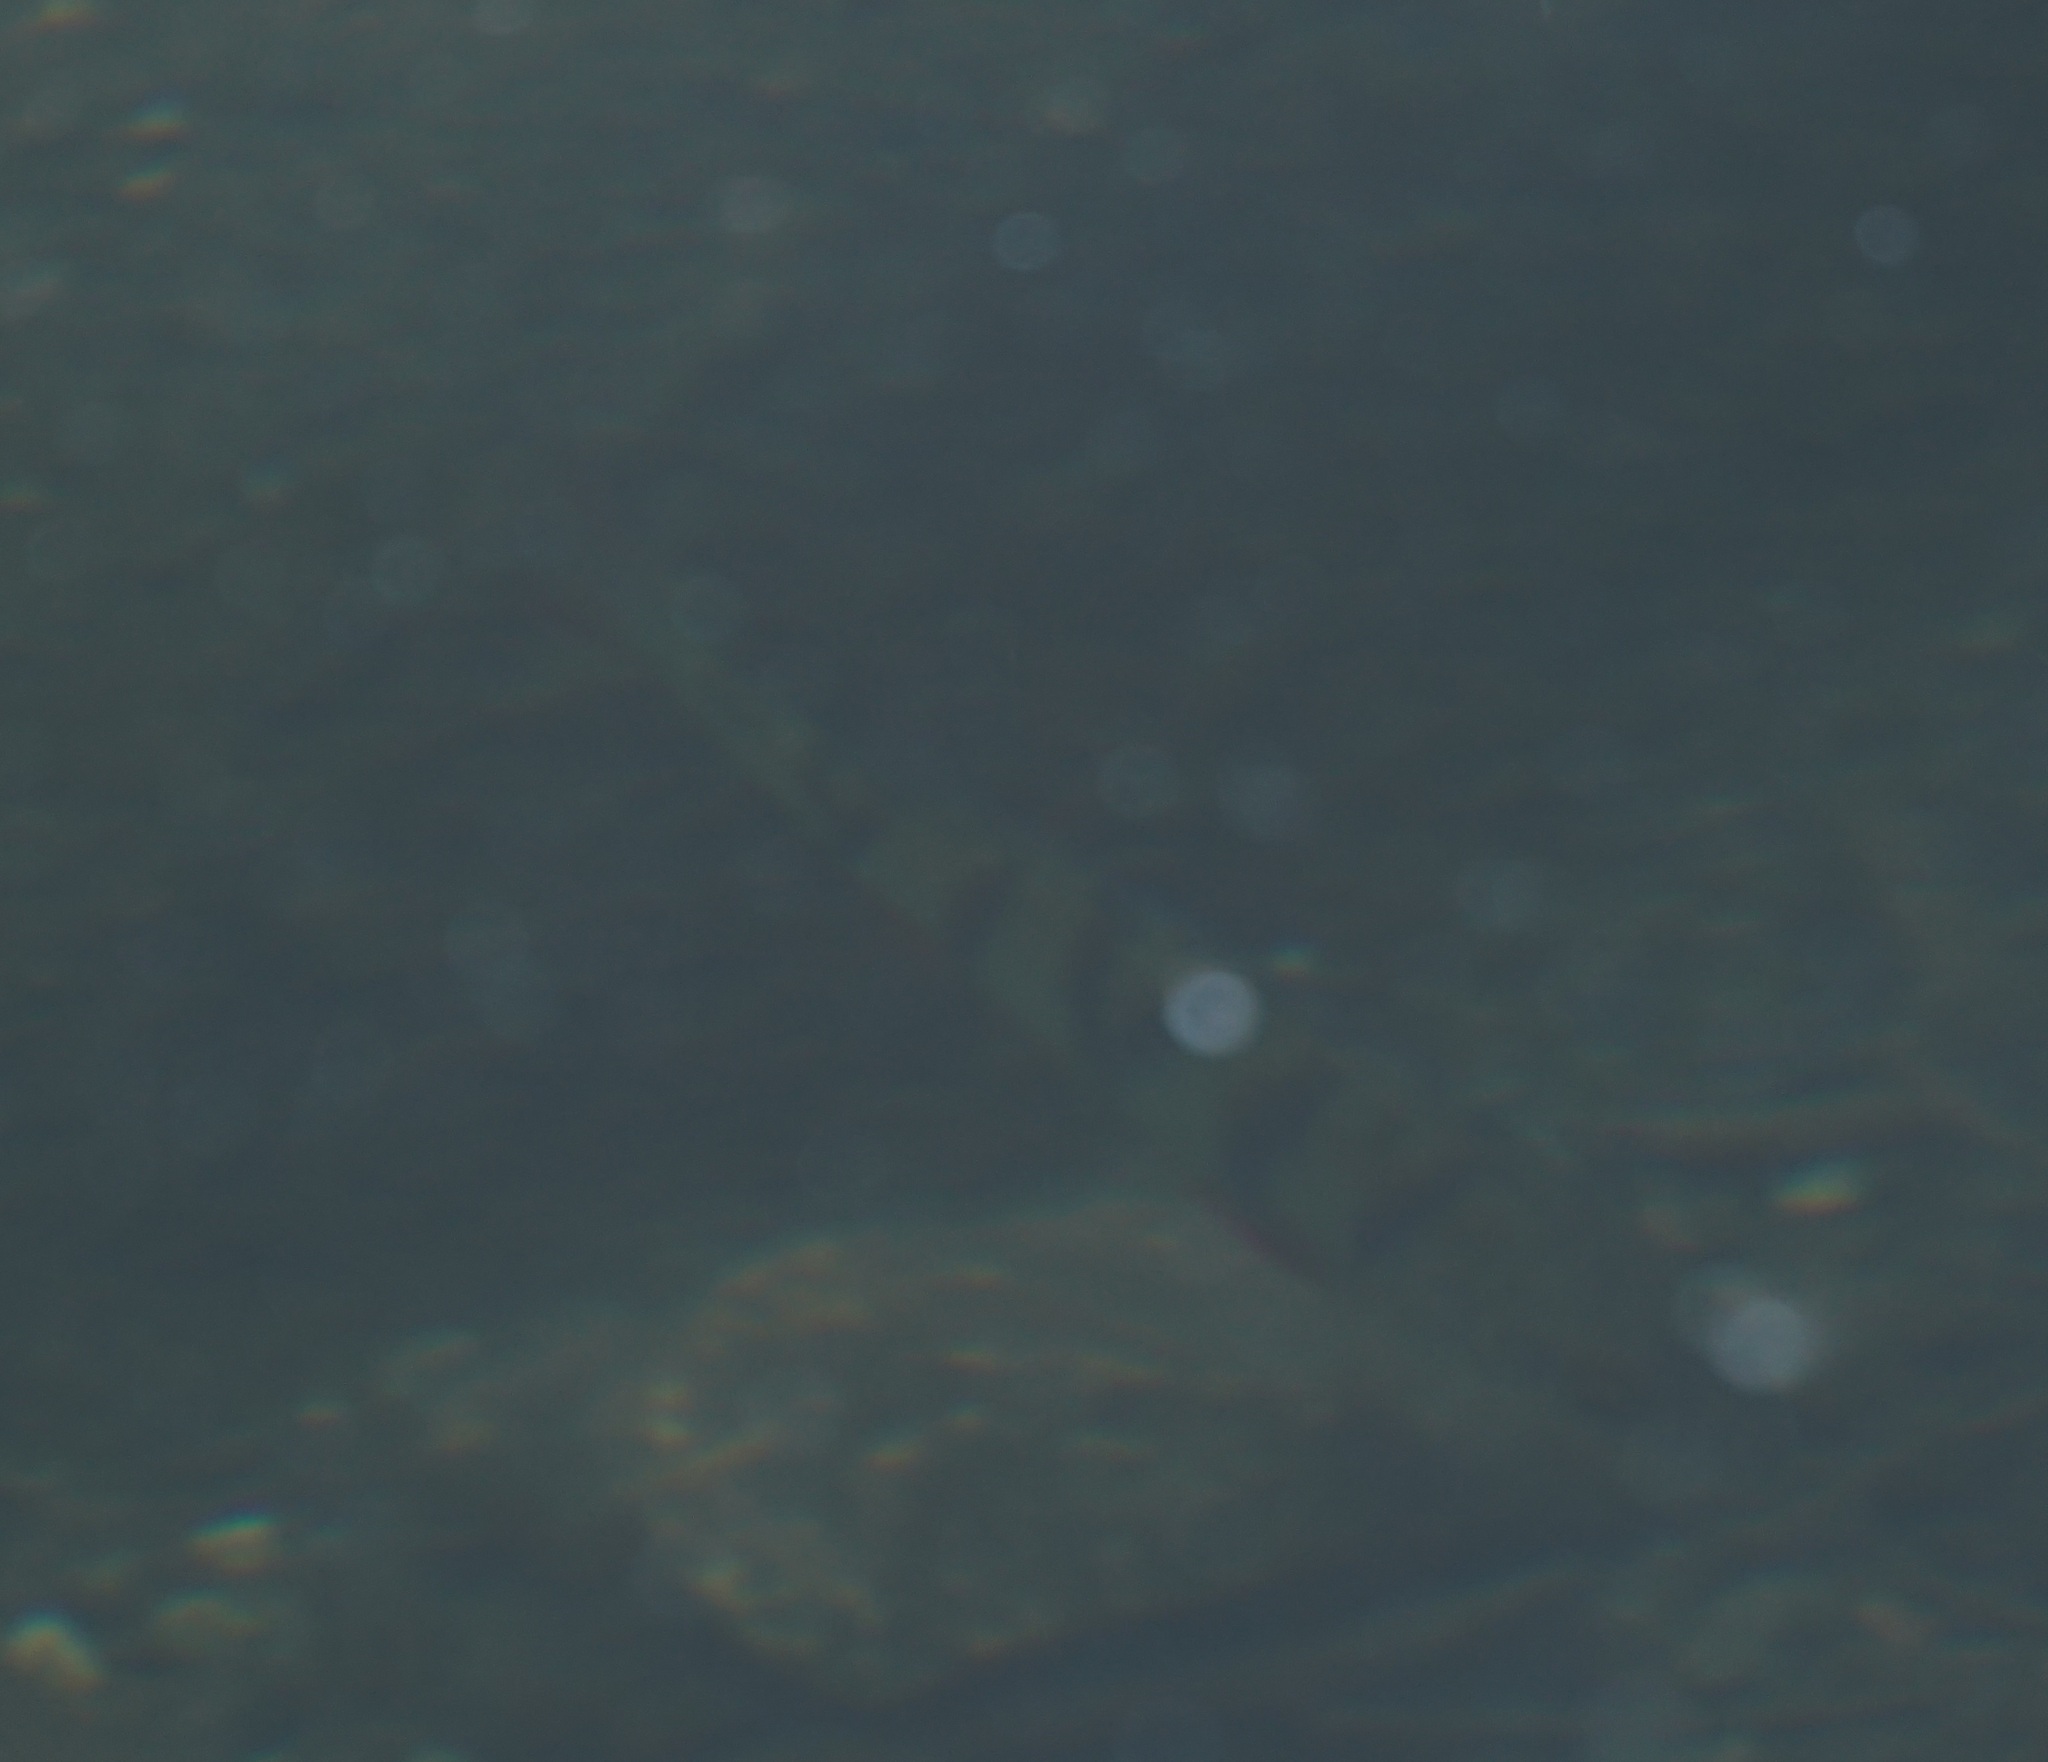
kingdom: Animalia
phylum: Chordata
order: Perciformes
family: Percidae
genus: Perca
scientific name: Perca fluviatilis
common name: Perch
